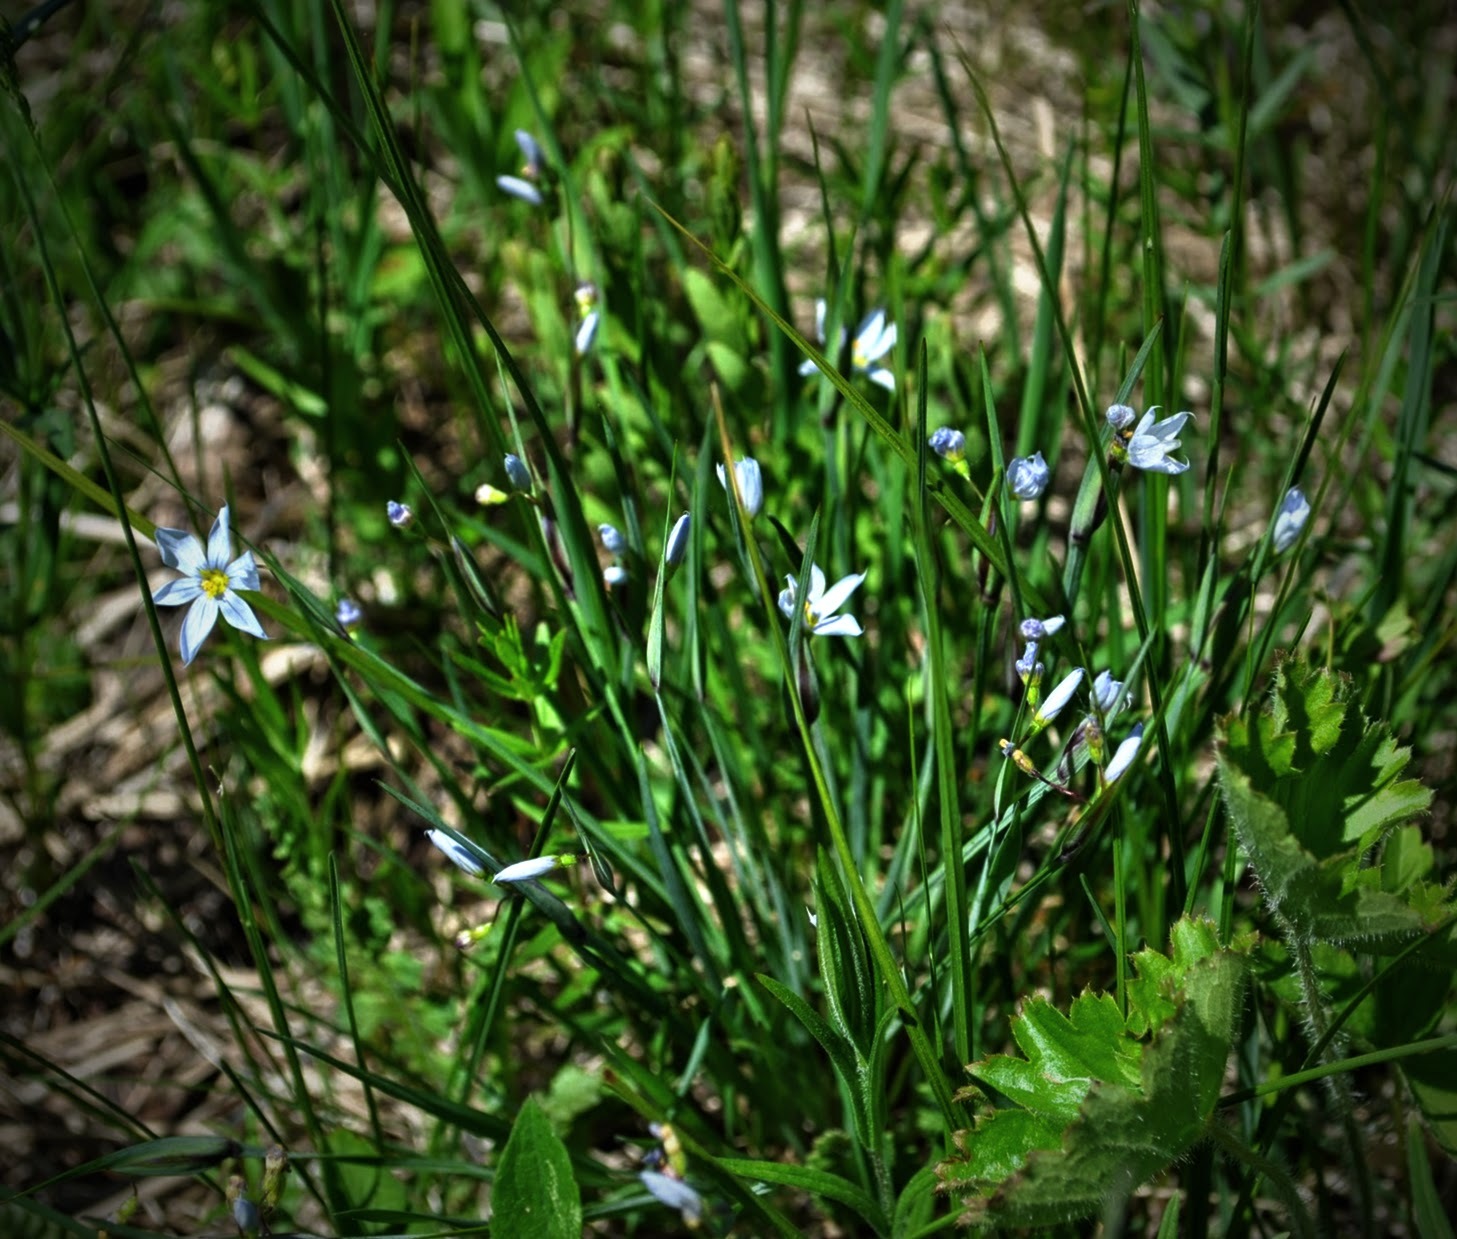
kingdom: Plantae
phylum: Tracheophyta
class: Liliopsida
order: Asparagales
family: Iridaceae
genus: Sisyrinchium
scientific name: Sisyrinchium campestre
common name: Prairie blue-eyed-grass
